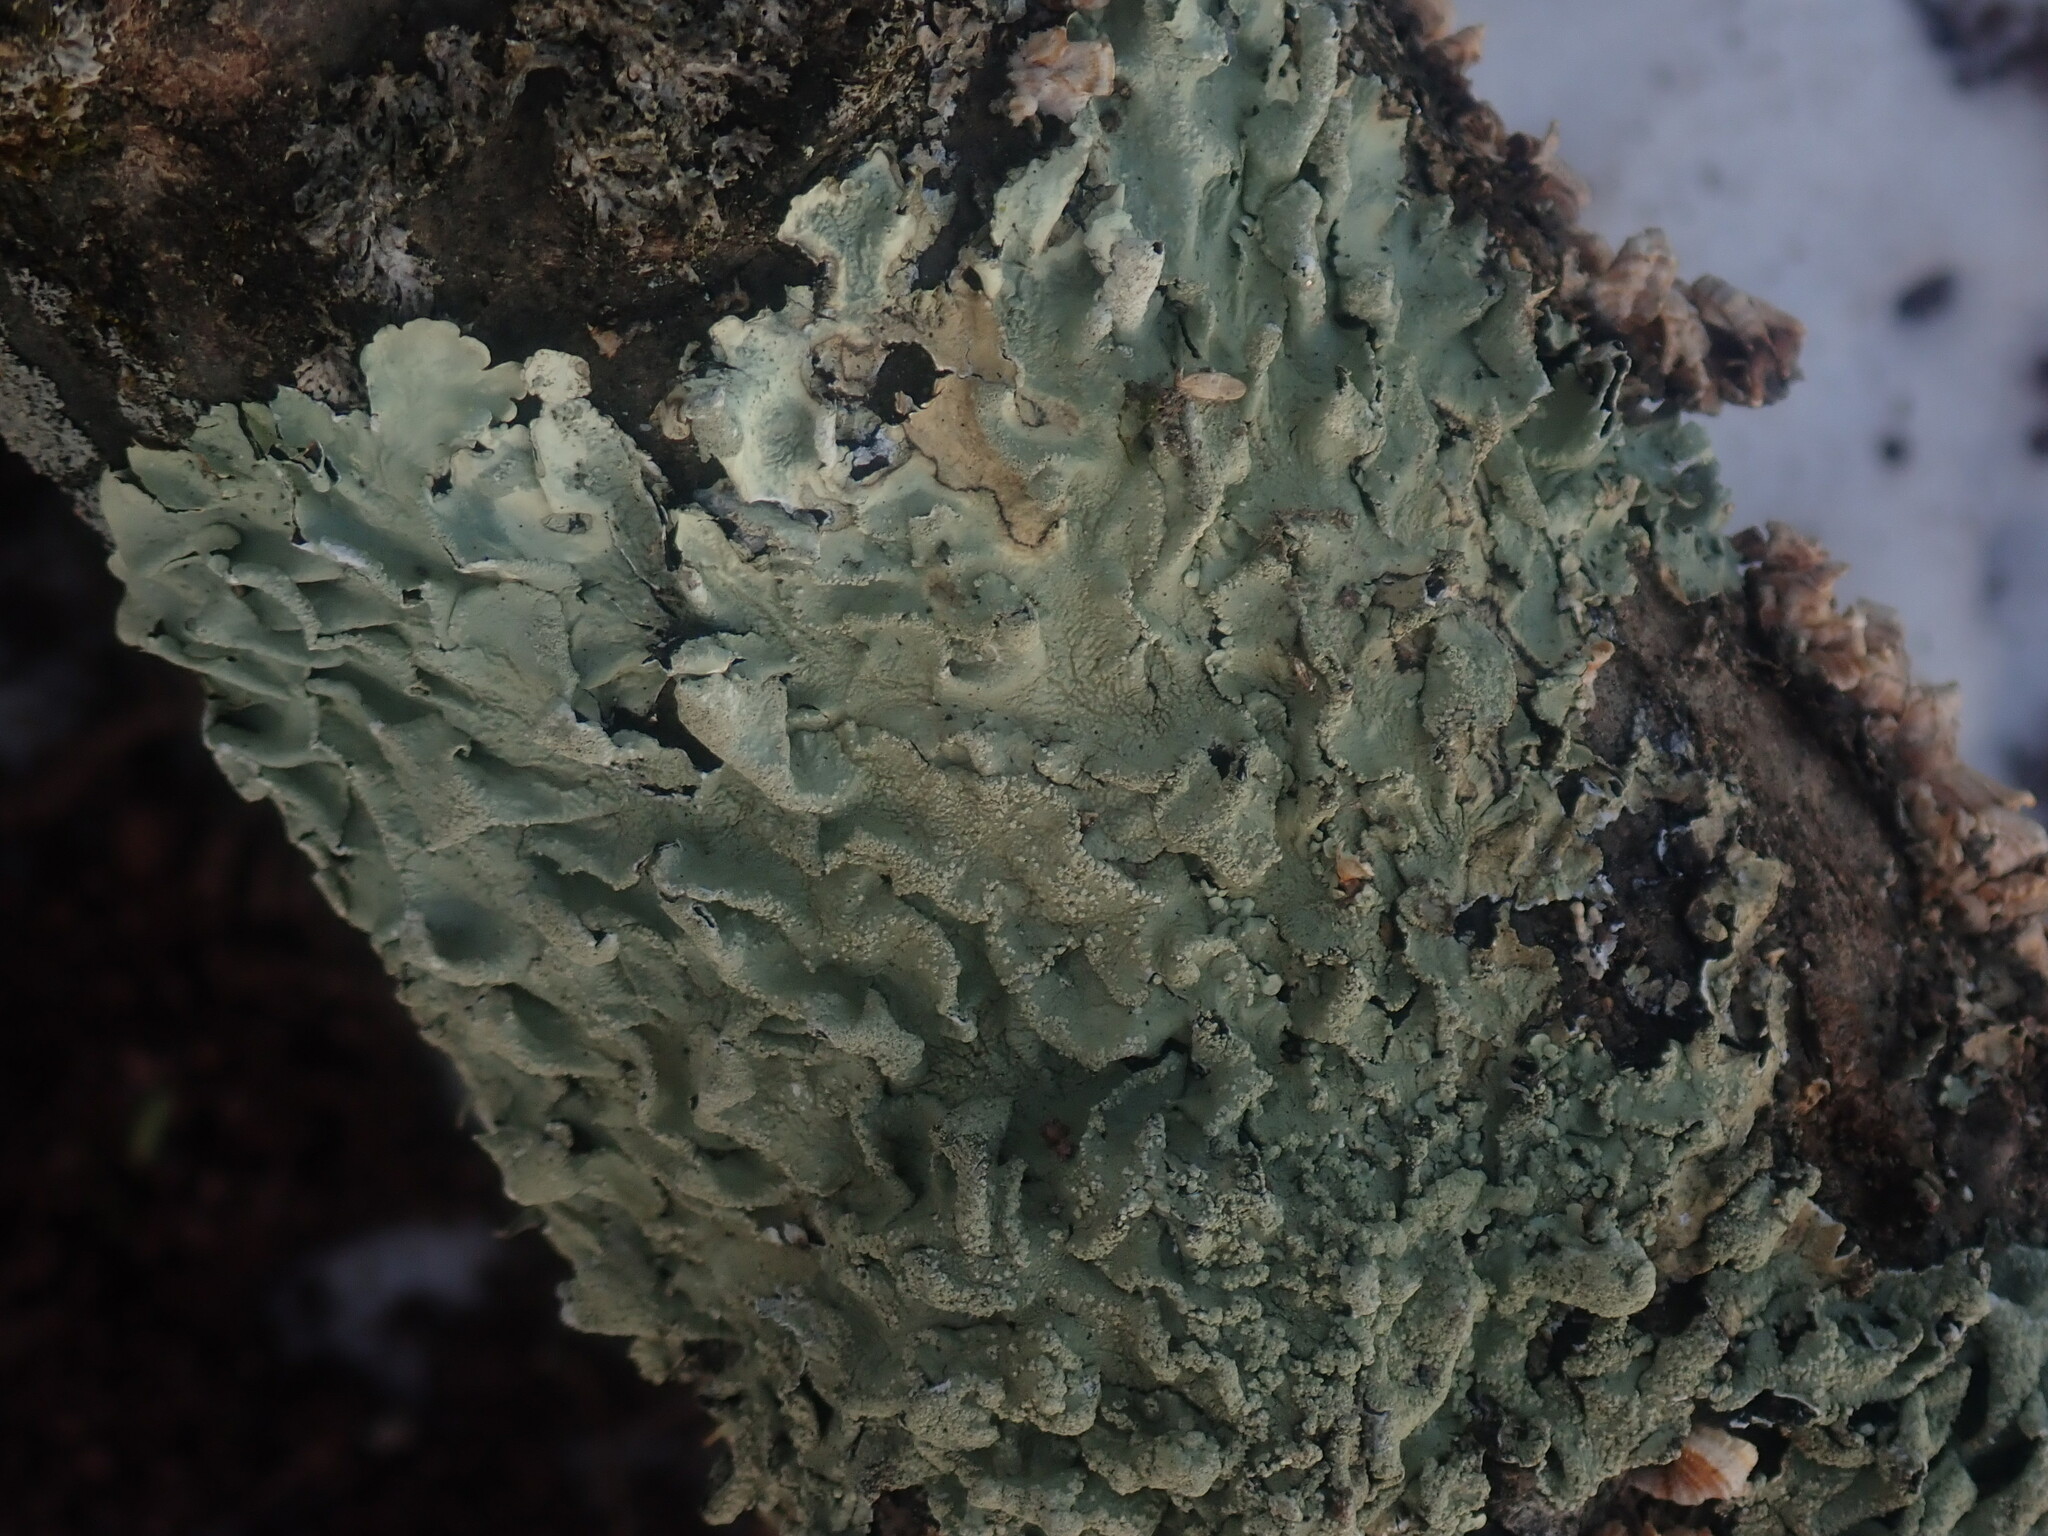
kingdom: Fungi
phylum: Ascomycota
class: Lecanoromycetes
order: Lecanorales
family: Parmeliaceae
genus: Flavoparmelia
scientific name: Flavoparmelia caperata
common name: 40-mile per hour lichen
